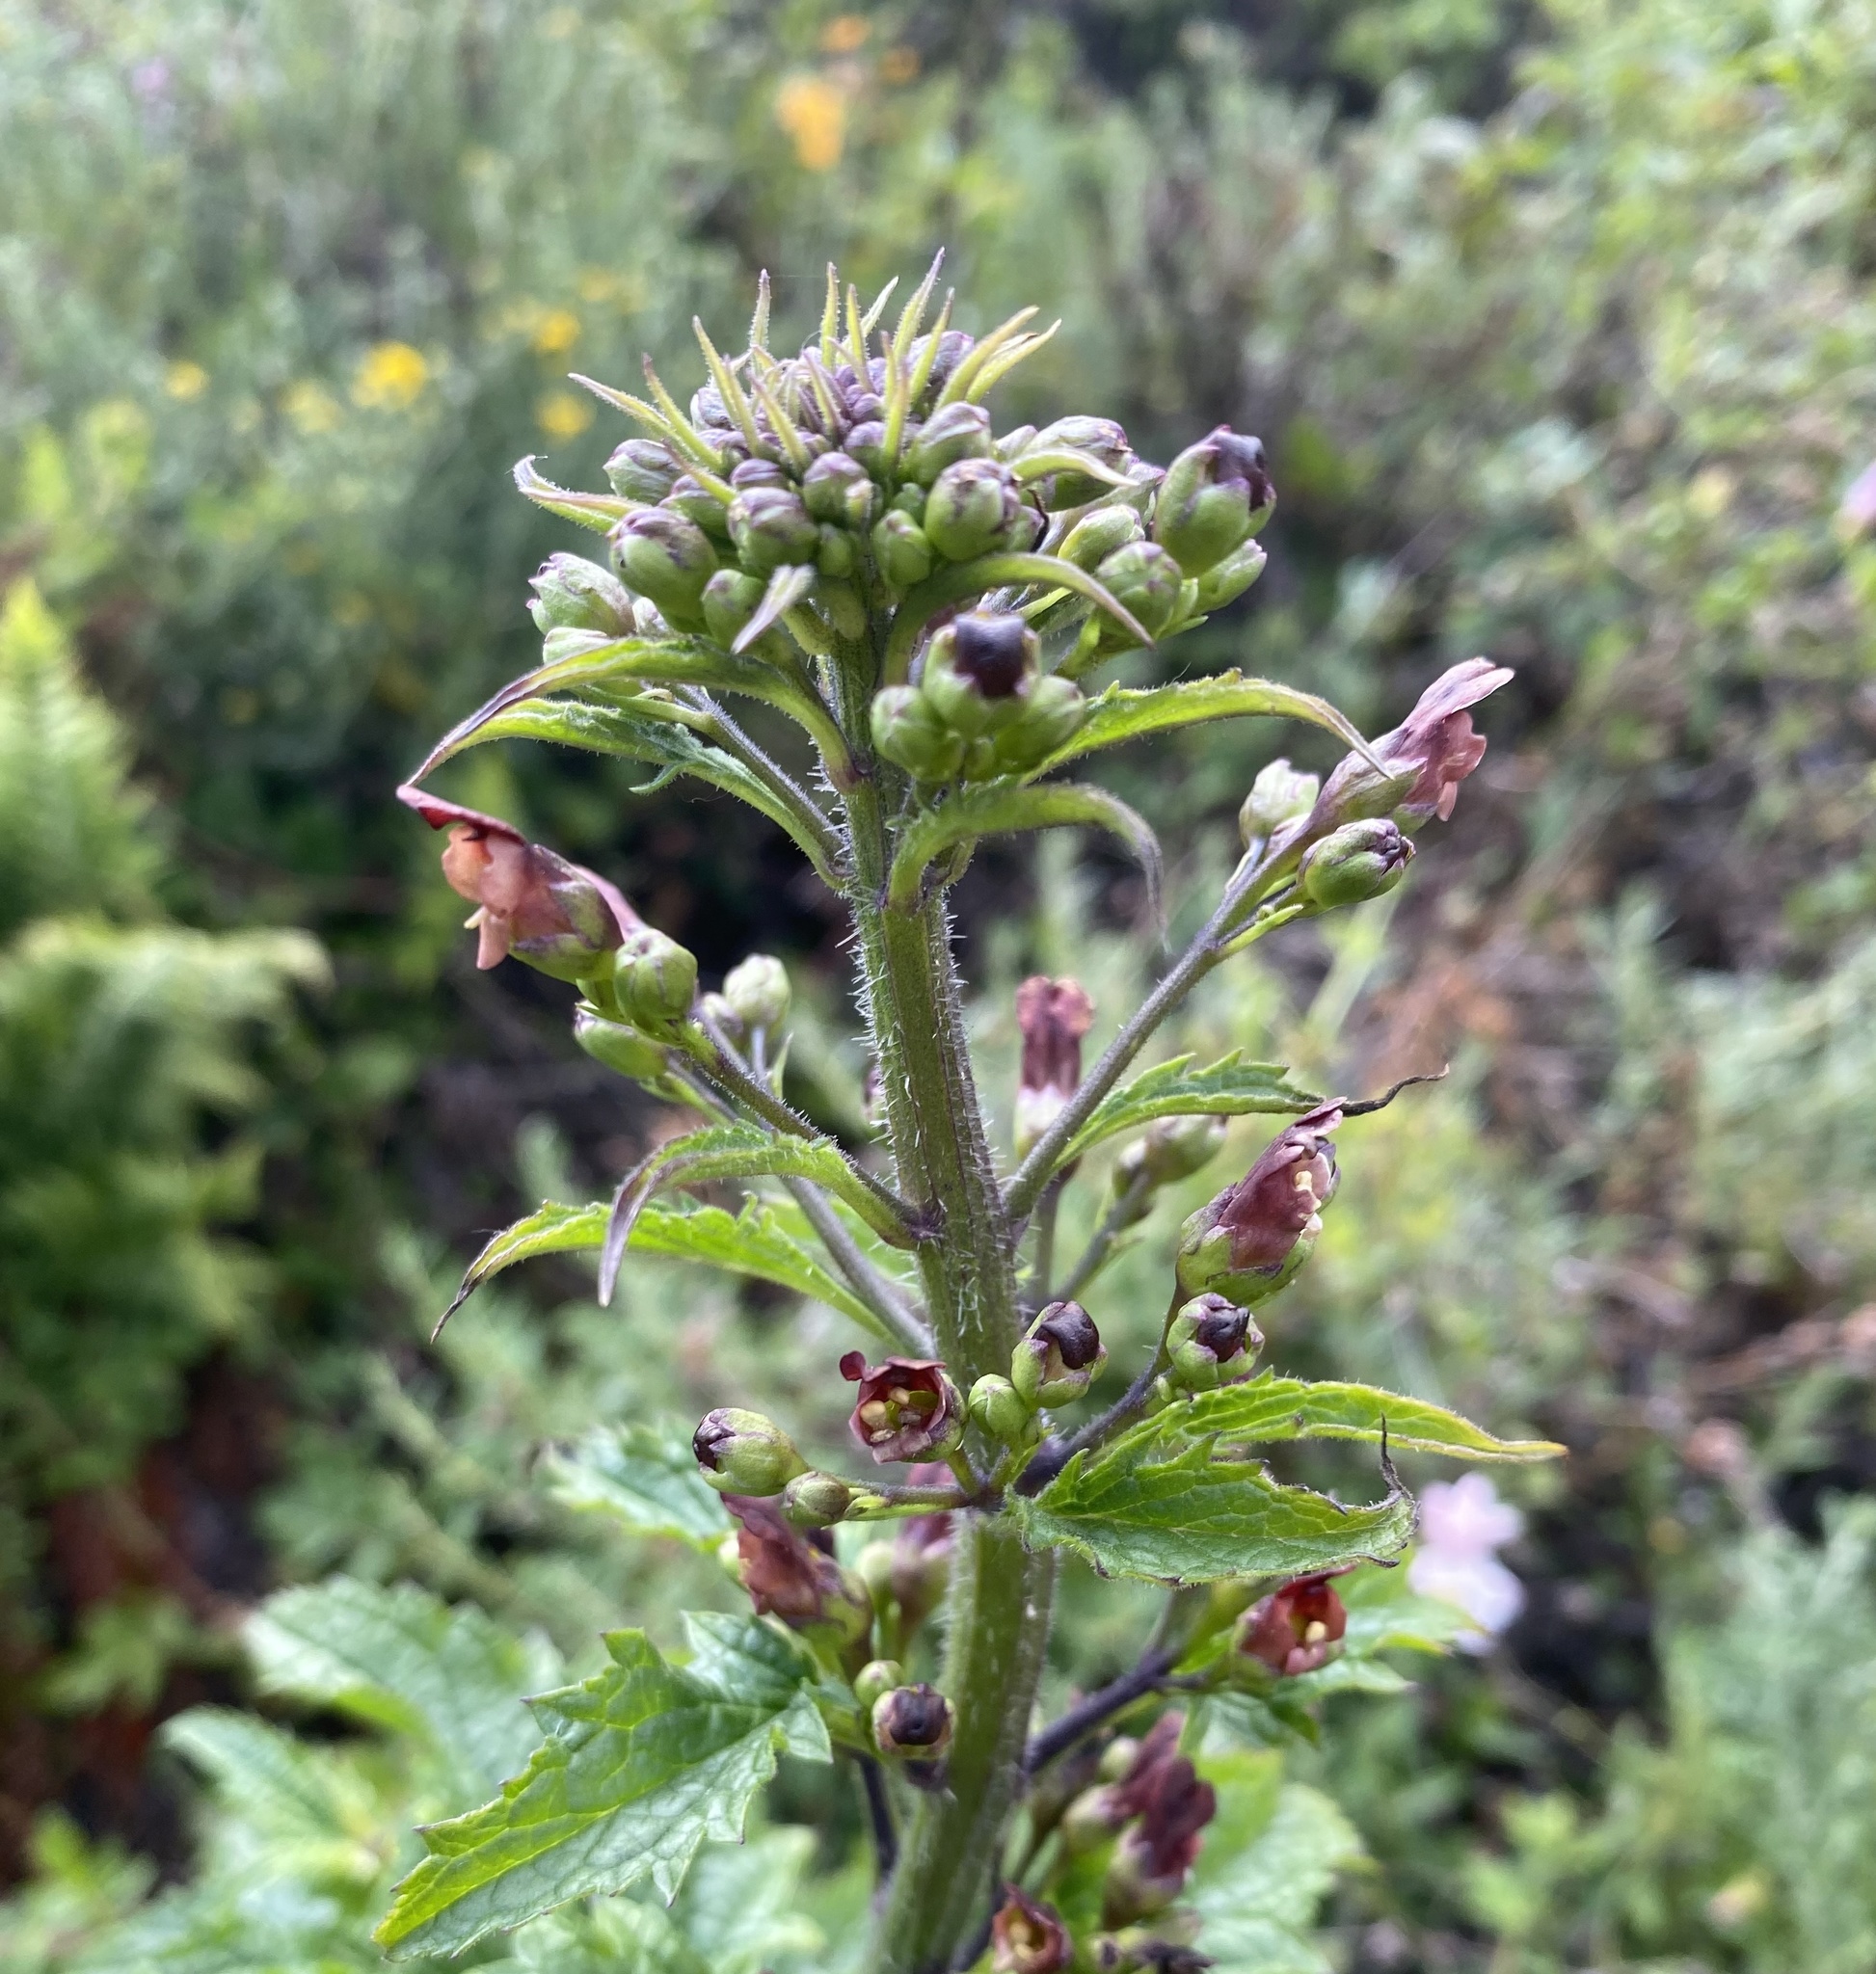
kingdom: Plantae
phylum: Tracheophyta
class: Magnoliopsida
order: Lamiales
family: Scrophulariaceae
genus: Scrophularia
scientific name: Scrophularia californica
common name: California figwort
